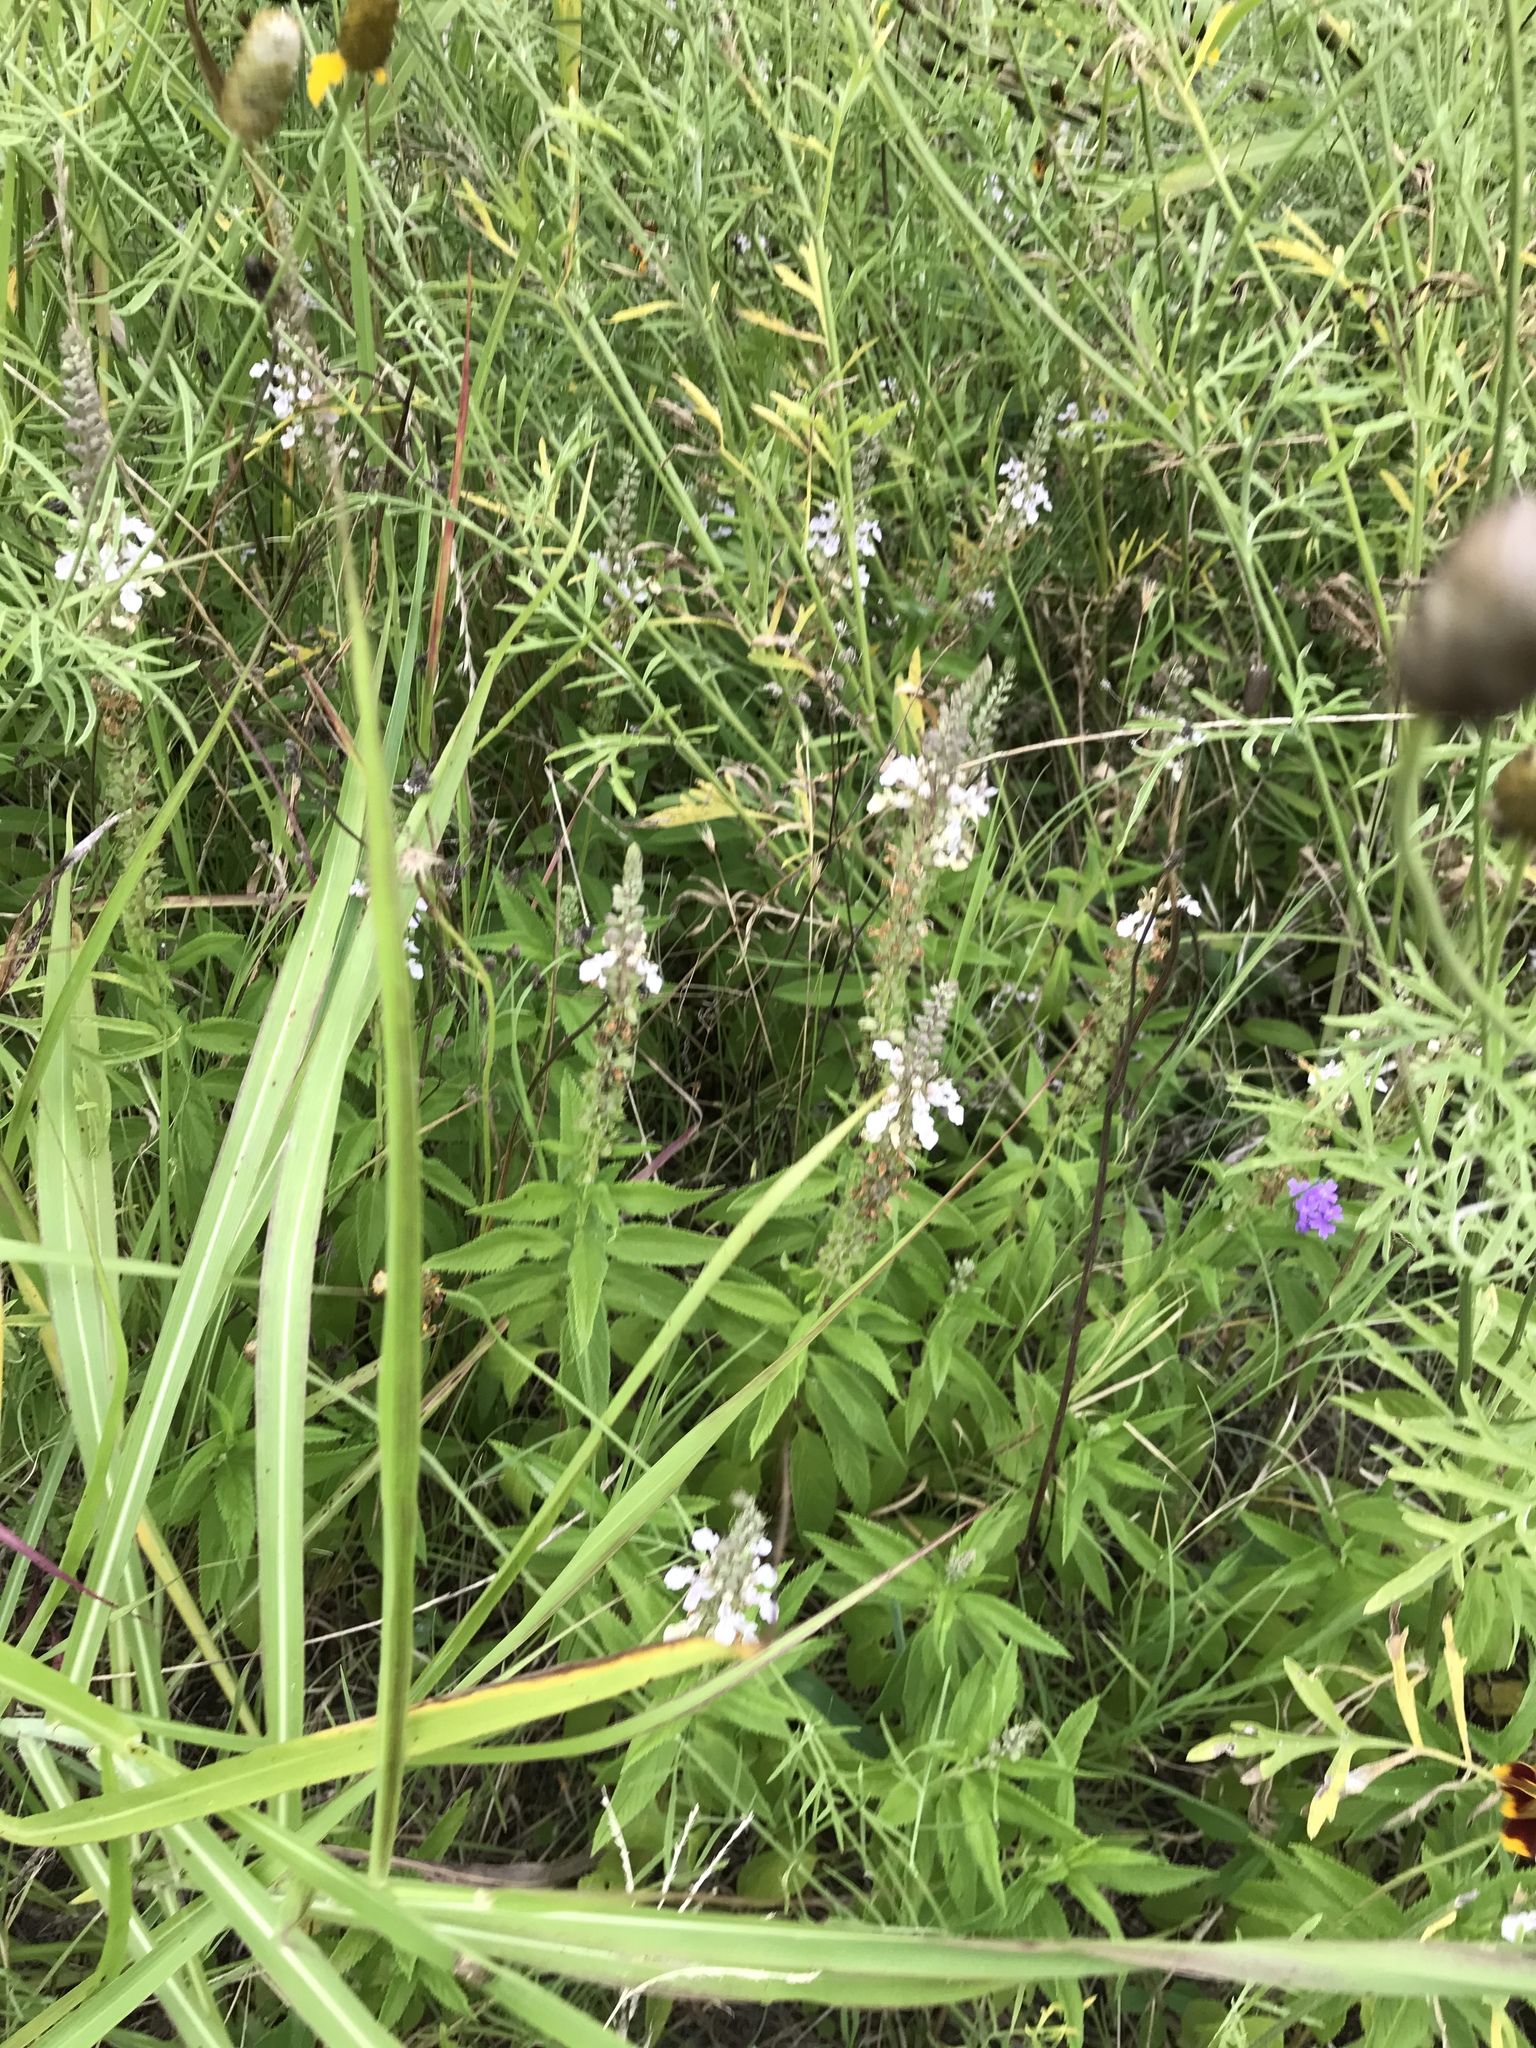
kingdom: Plantae
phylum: Tracheophyta
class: Magnoliopsida
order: Lamiales
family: Lamiaceae
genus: Teucrium
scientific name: Teucrium canadense
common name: American germander
